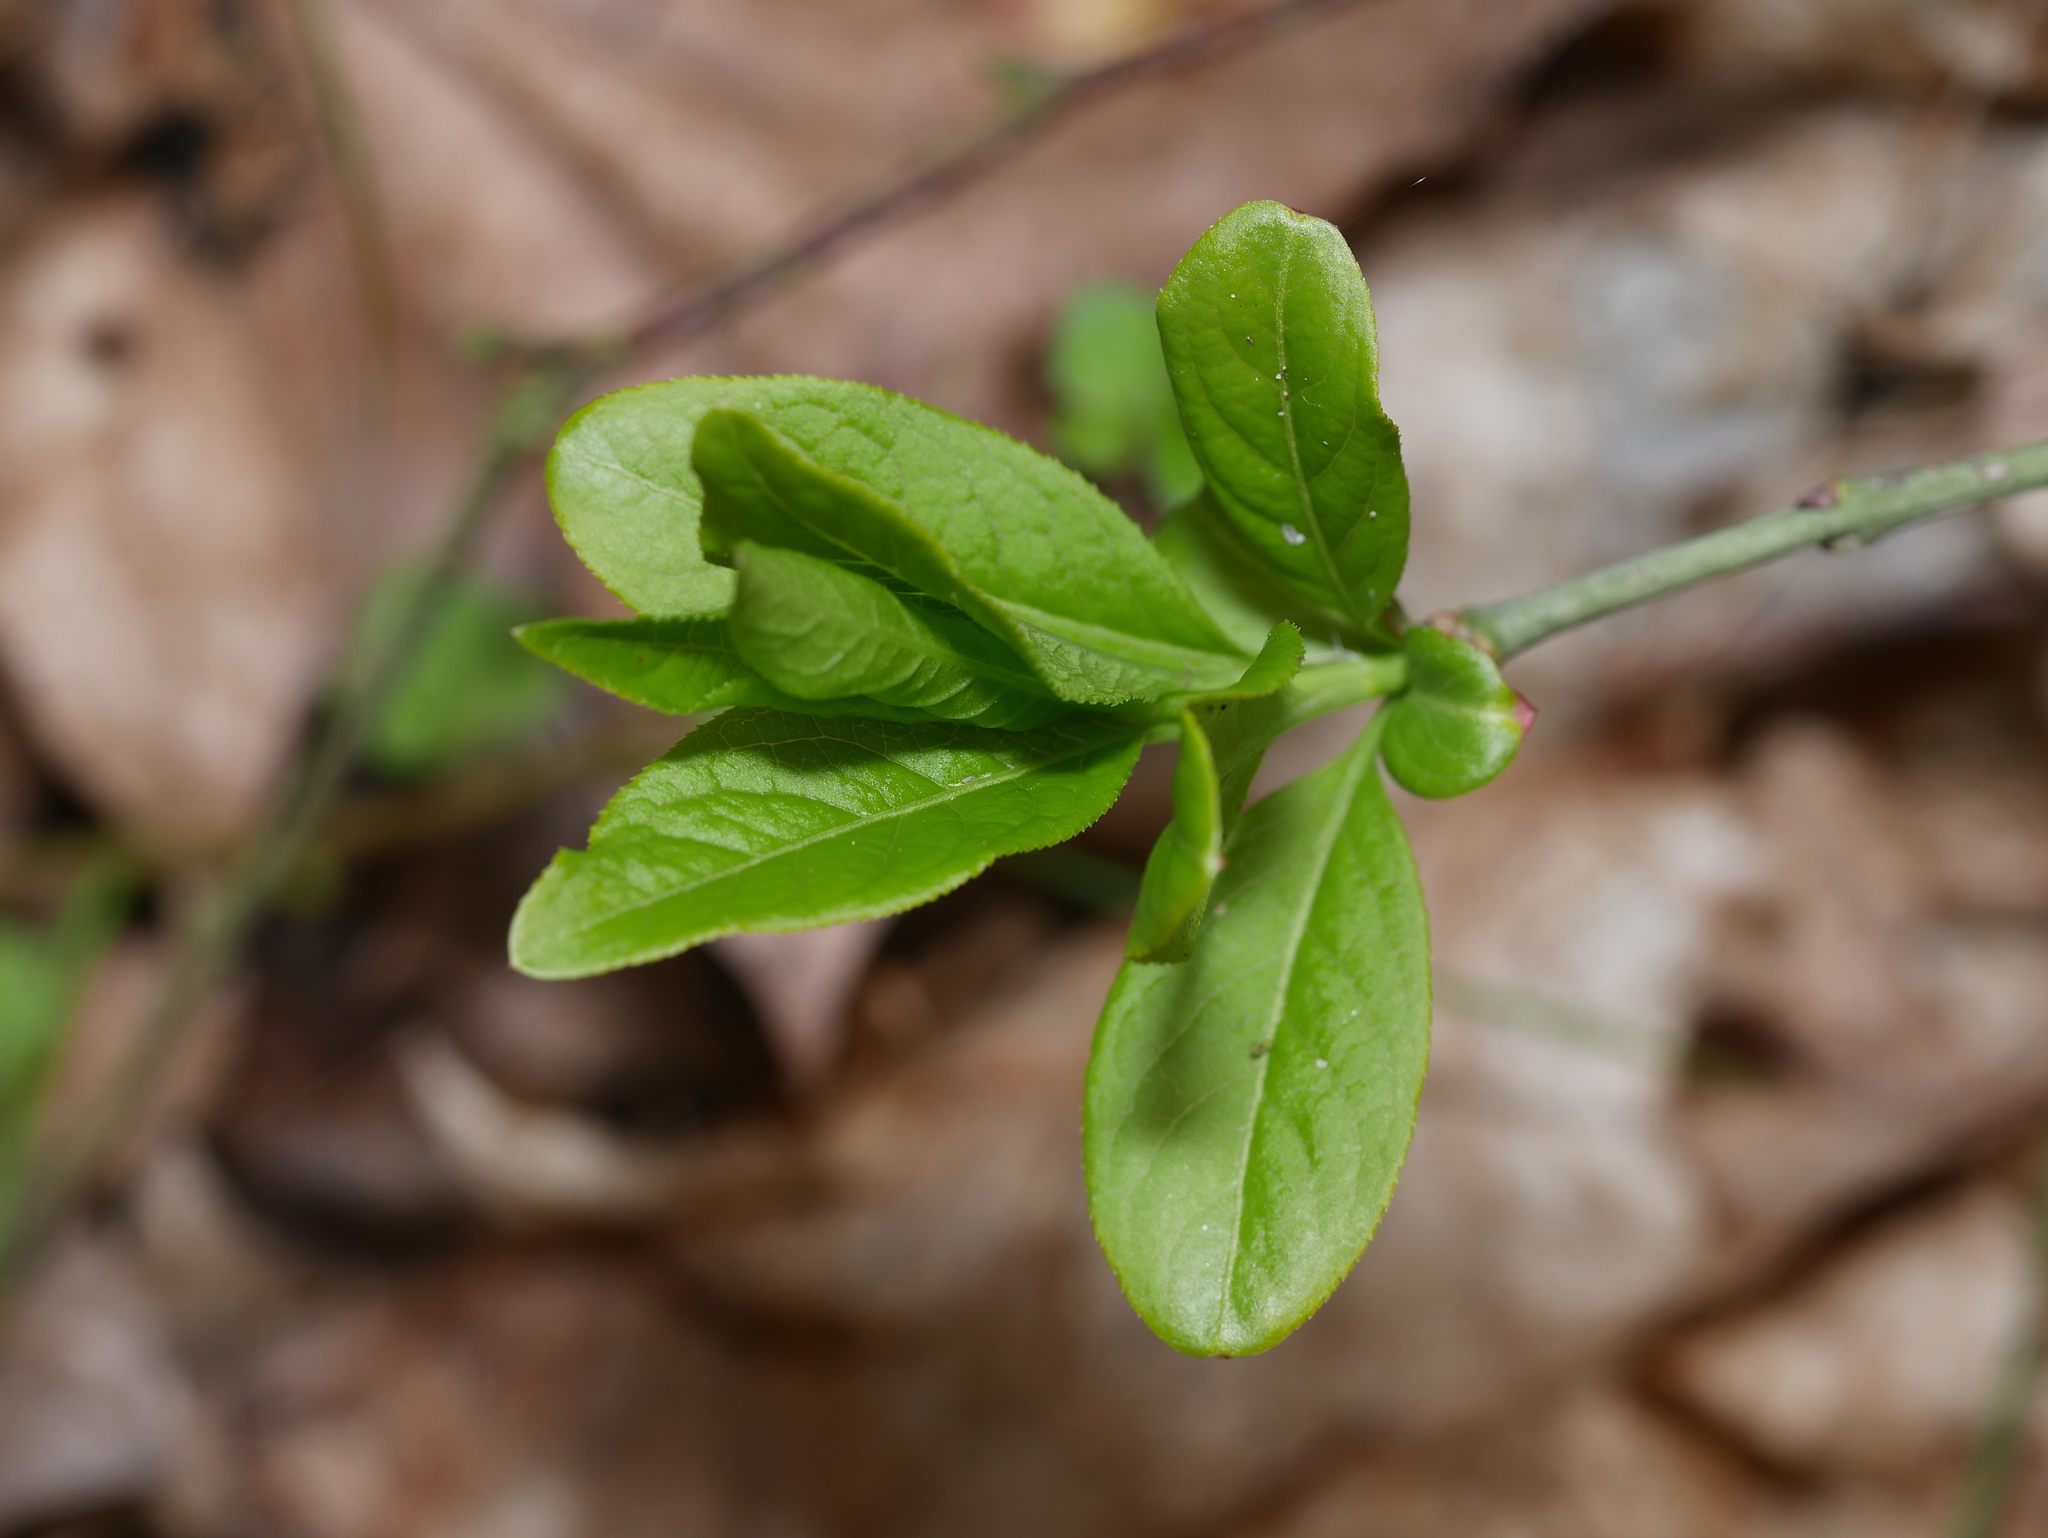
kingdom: Plantae
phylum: Tracheophyta
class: Magnoliopsida
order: Celastrales
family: Celastraceae
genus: Euonymus
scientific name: Euonymus europaeus
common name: Spindle
